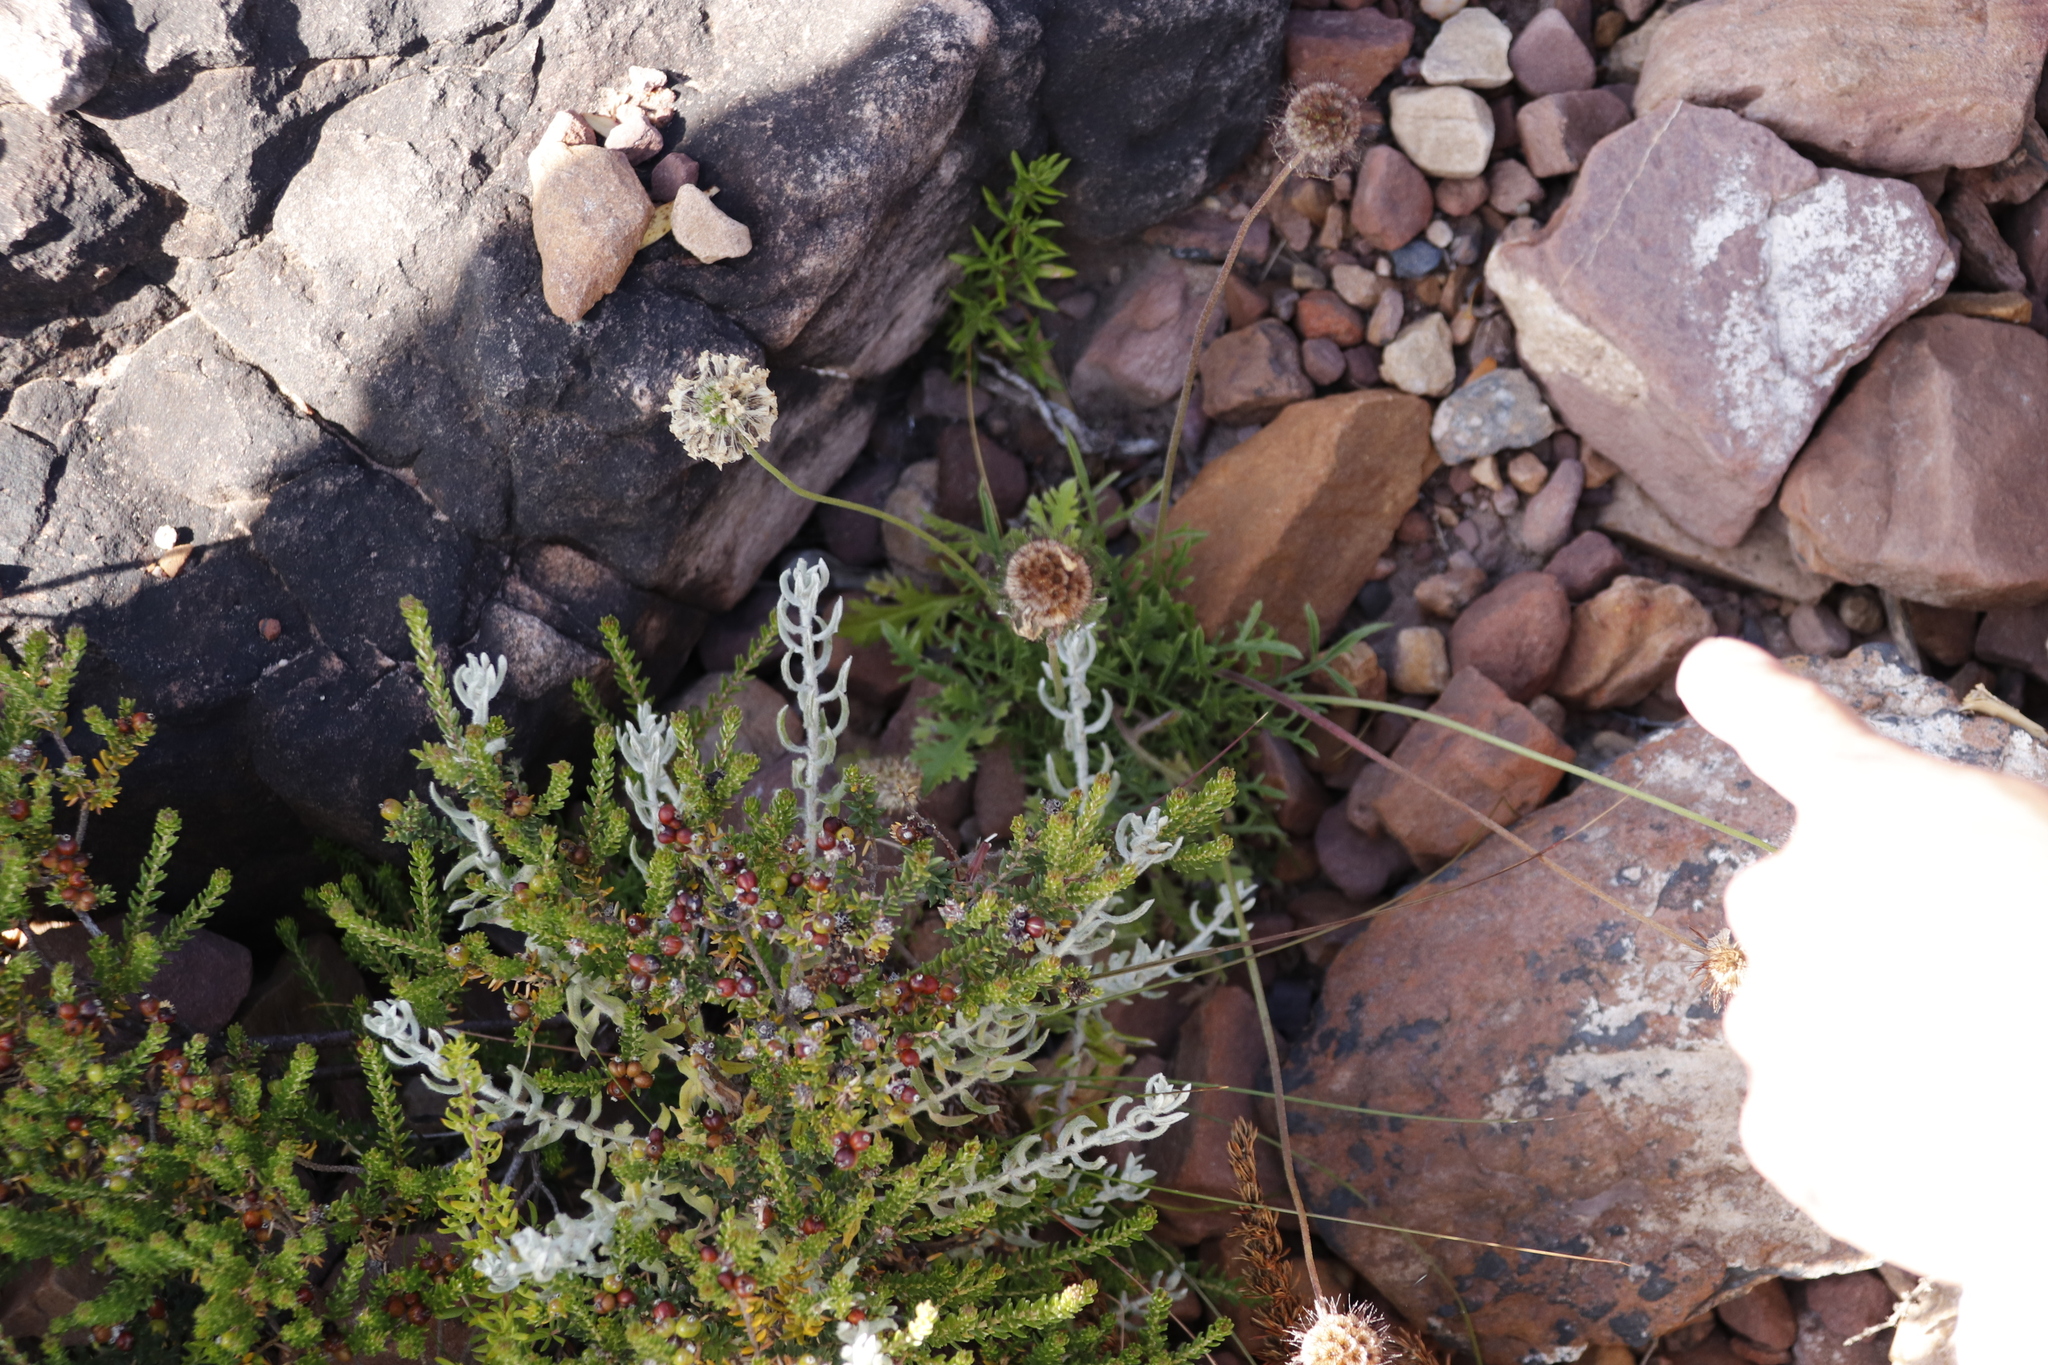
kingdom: Plantae
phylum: Tracheophyta
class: Magnoliopsida
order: Dipsacales
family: Caprifoliaceae
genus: Scabiosa
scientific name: Scabiosa columbaria
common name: Small scabious
